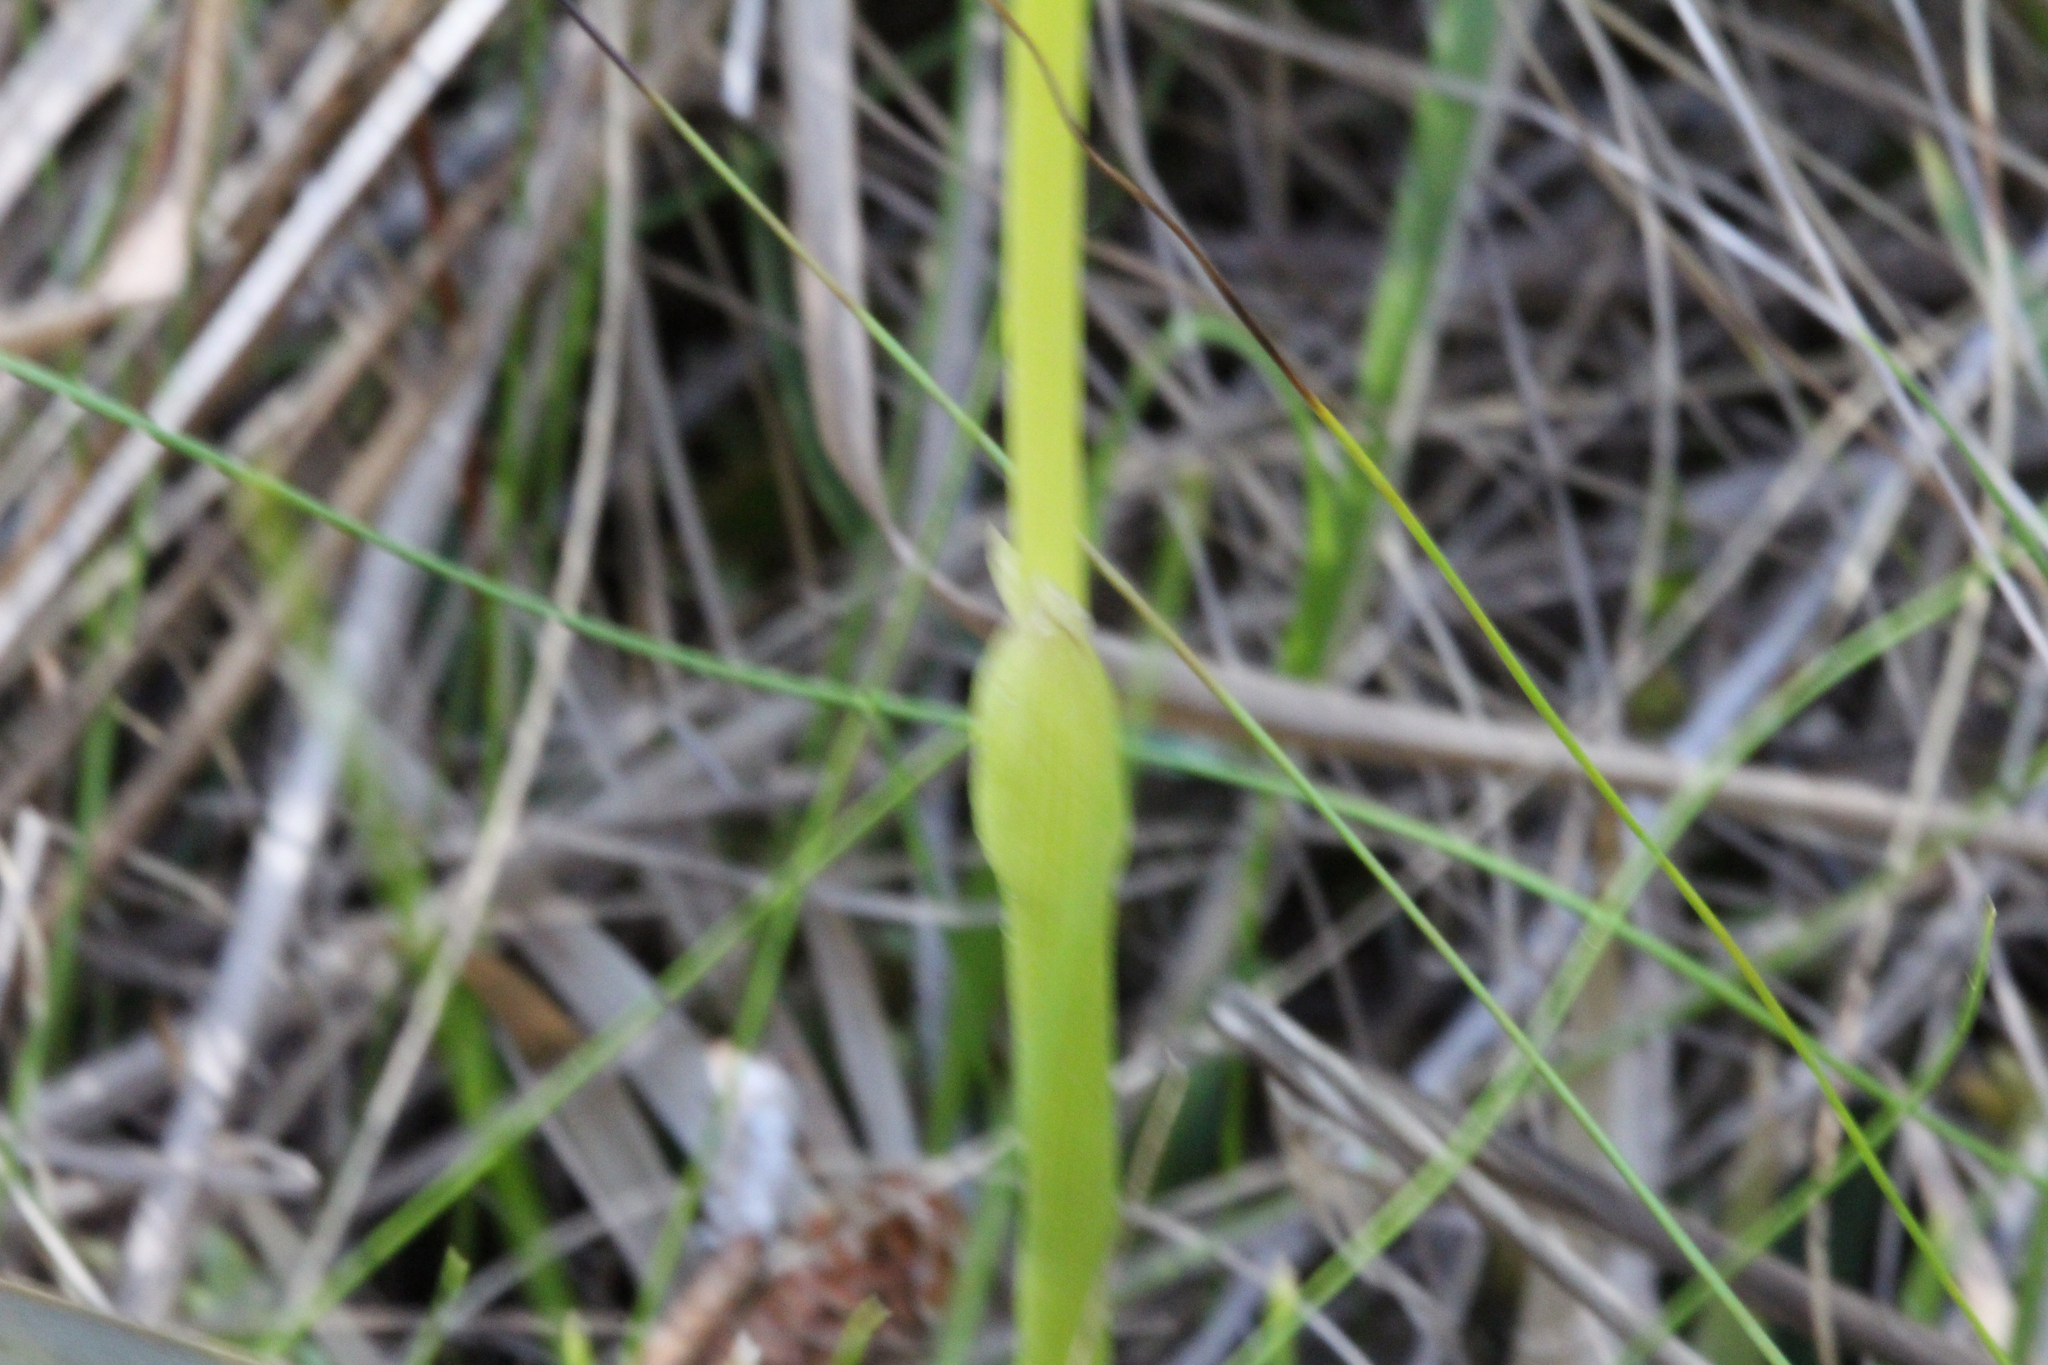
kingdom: Plantae
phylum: Tracheophyta
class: Liliopsida
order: Poales
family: Eriocaulaceae
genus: Eriocaulon
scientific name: Eriocaulon compressum
